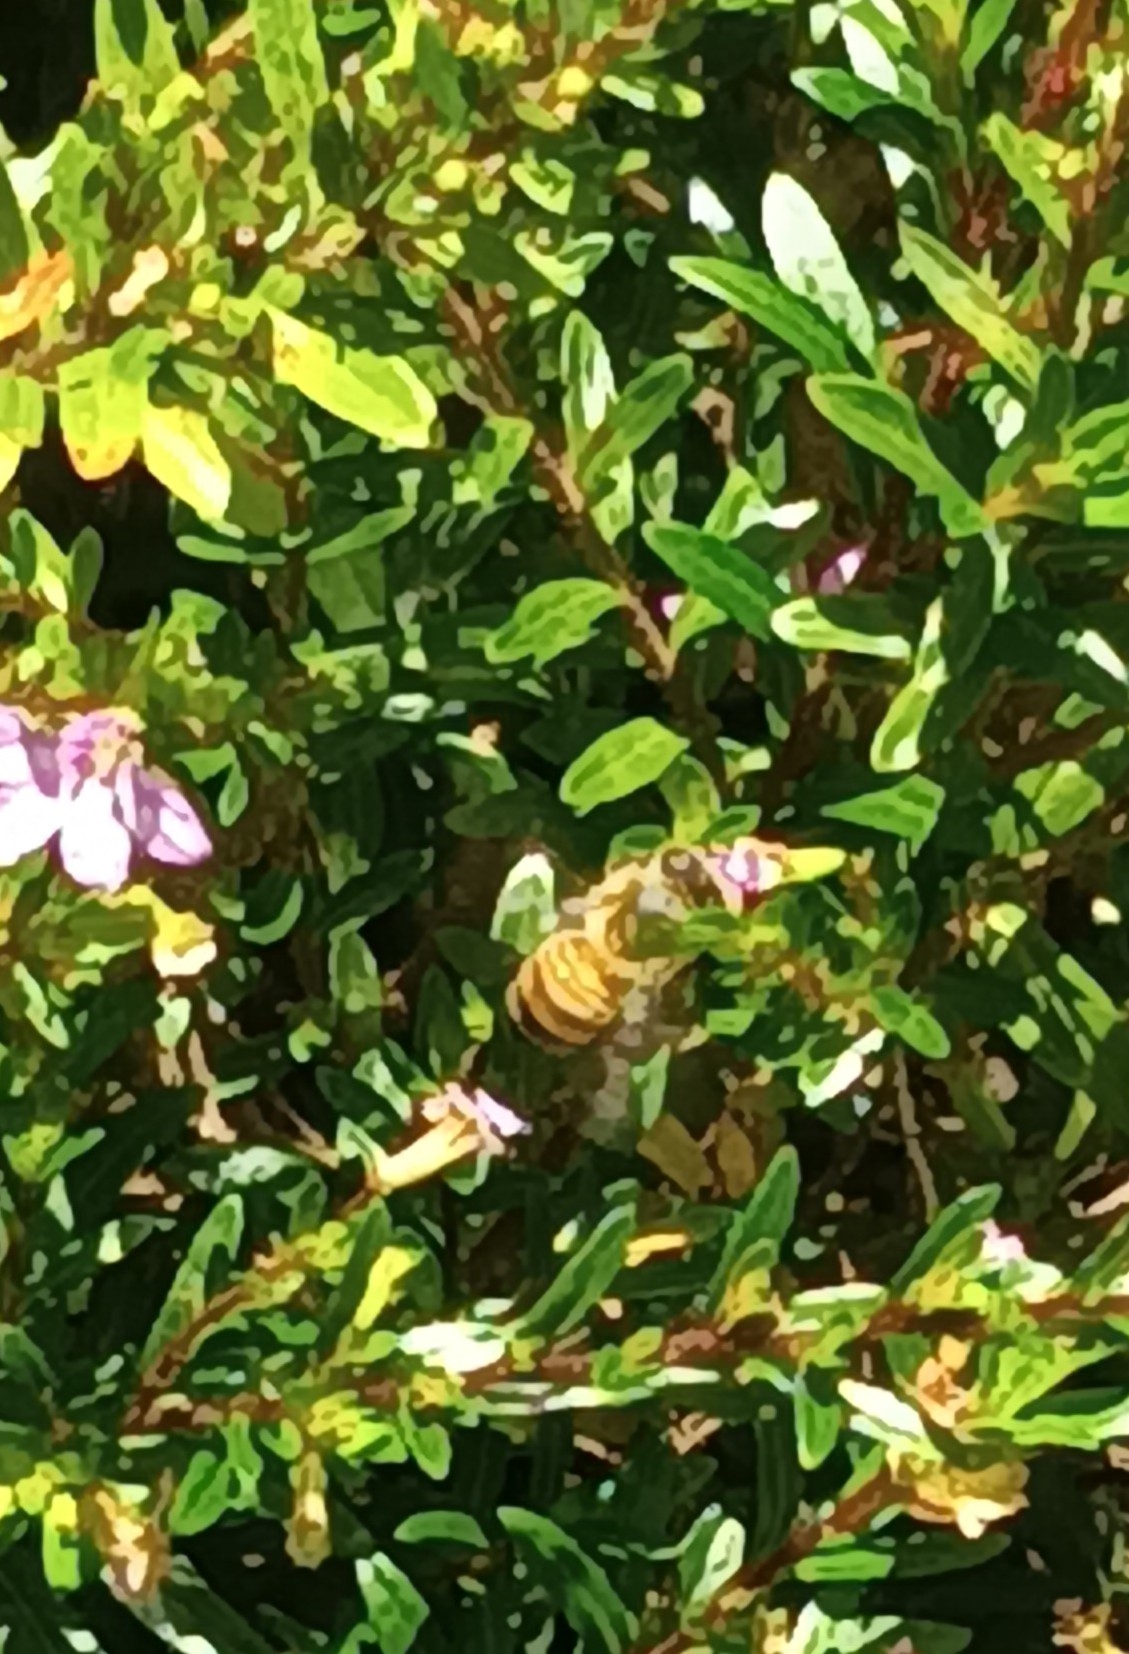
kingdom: Animalia
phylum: Arthropoda
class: Insecta
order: Hymenoptera
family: Apidae
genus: Apis
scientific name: Apis mellifera
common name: Honey bee
